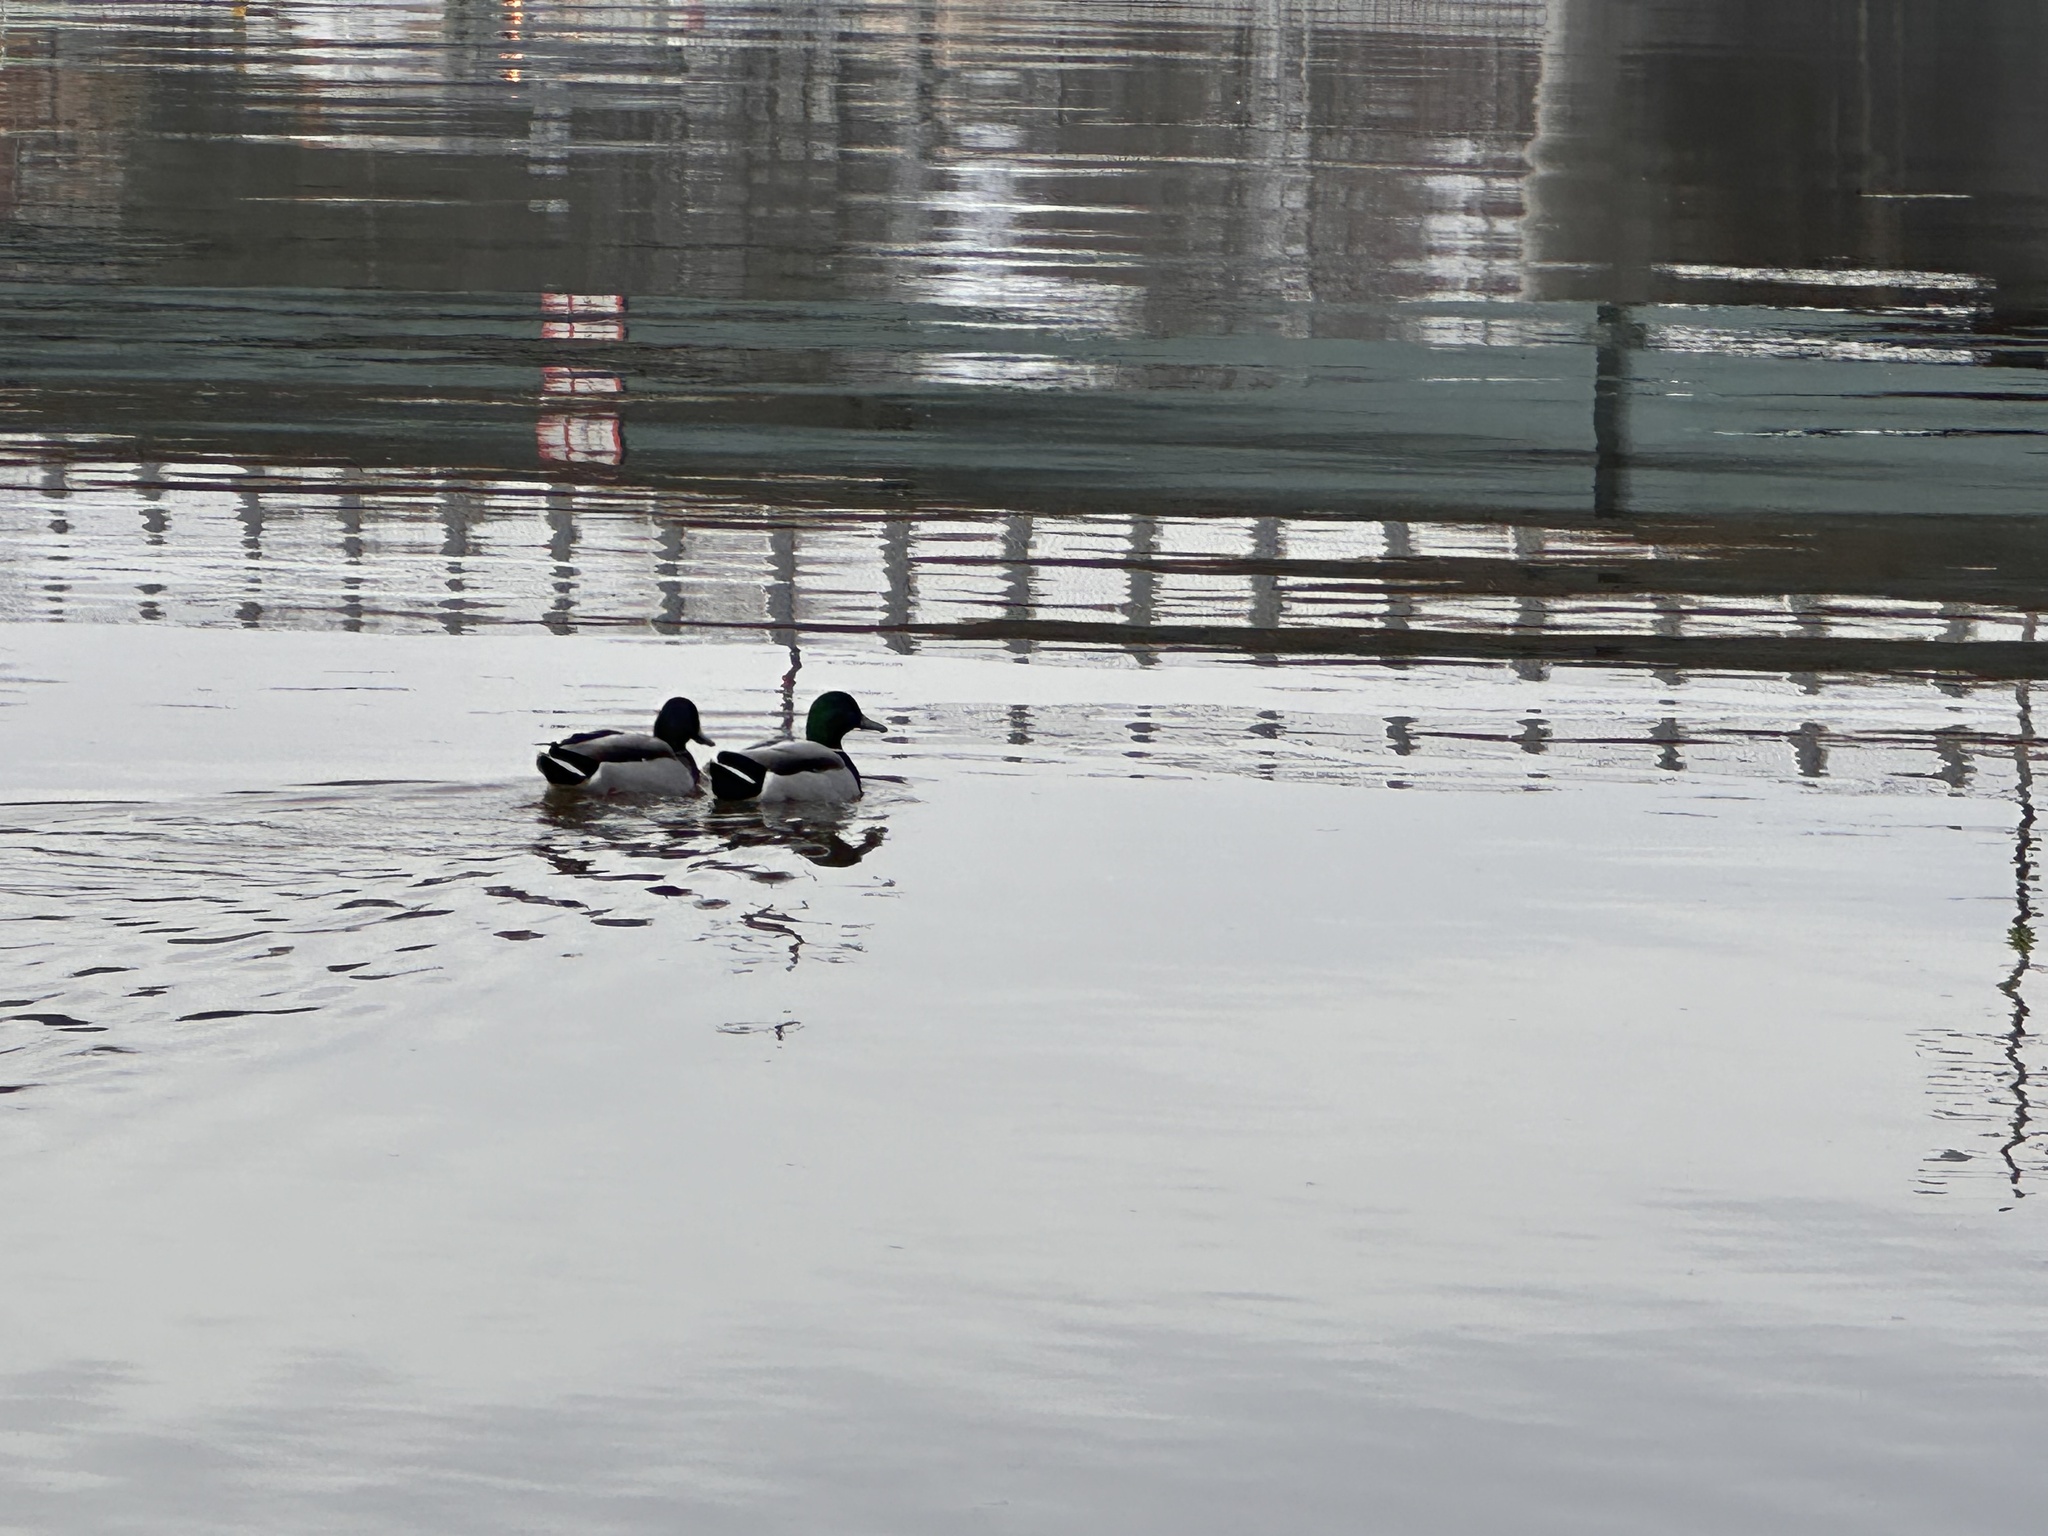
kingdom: Animalia
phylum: Chordata
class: Aves
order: Anseriformes
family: Anatidae
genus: Anas
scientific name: Anas platyrhynchos
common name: Mallard
